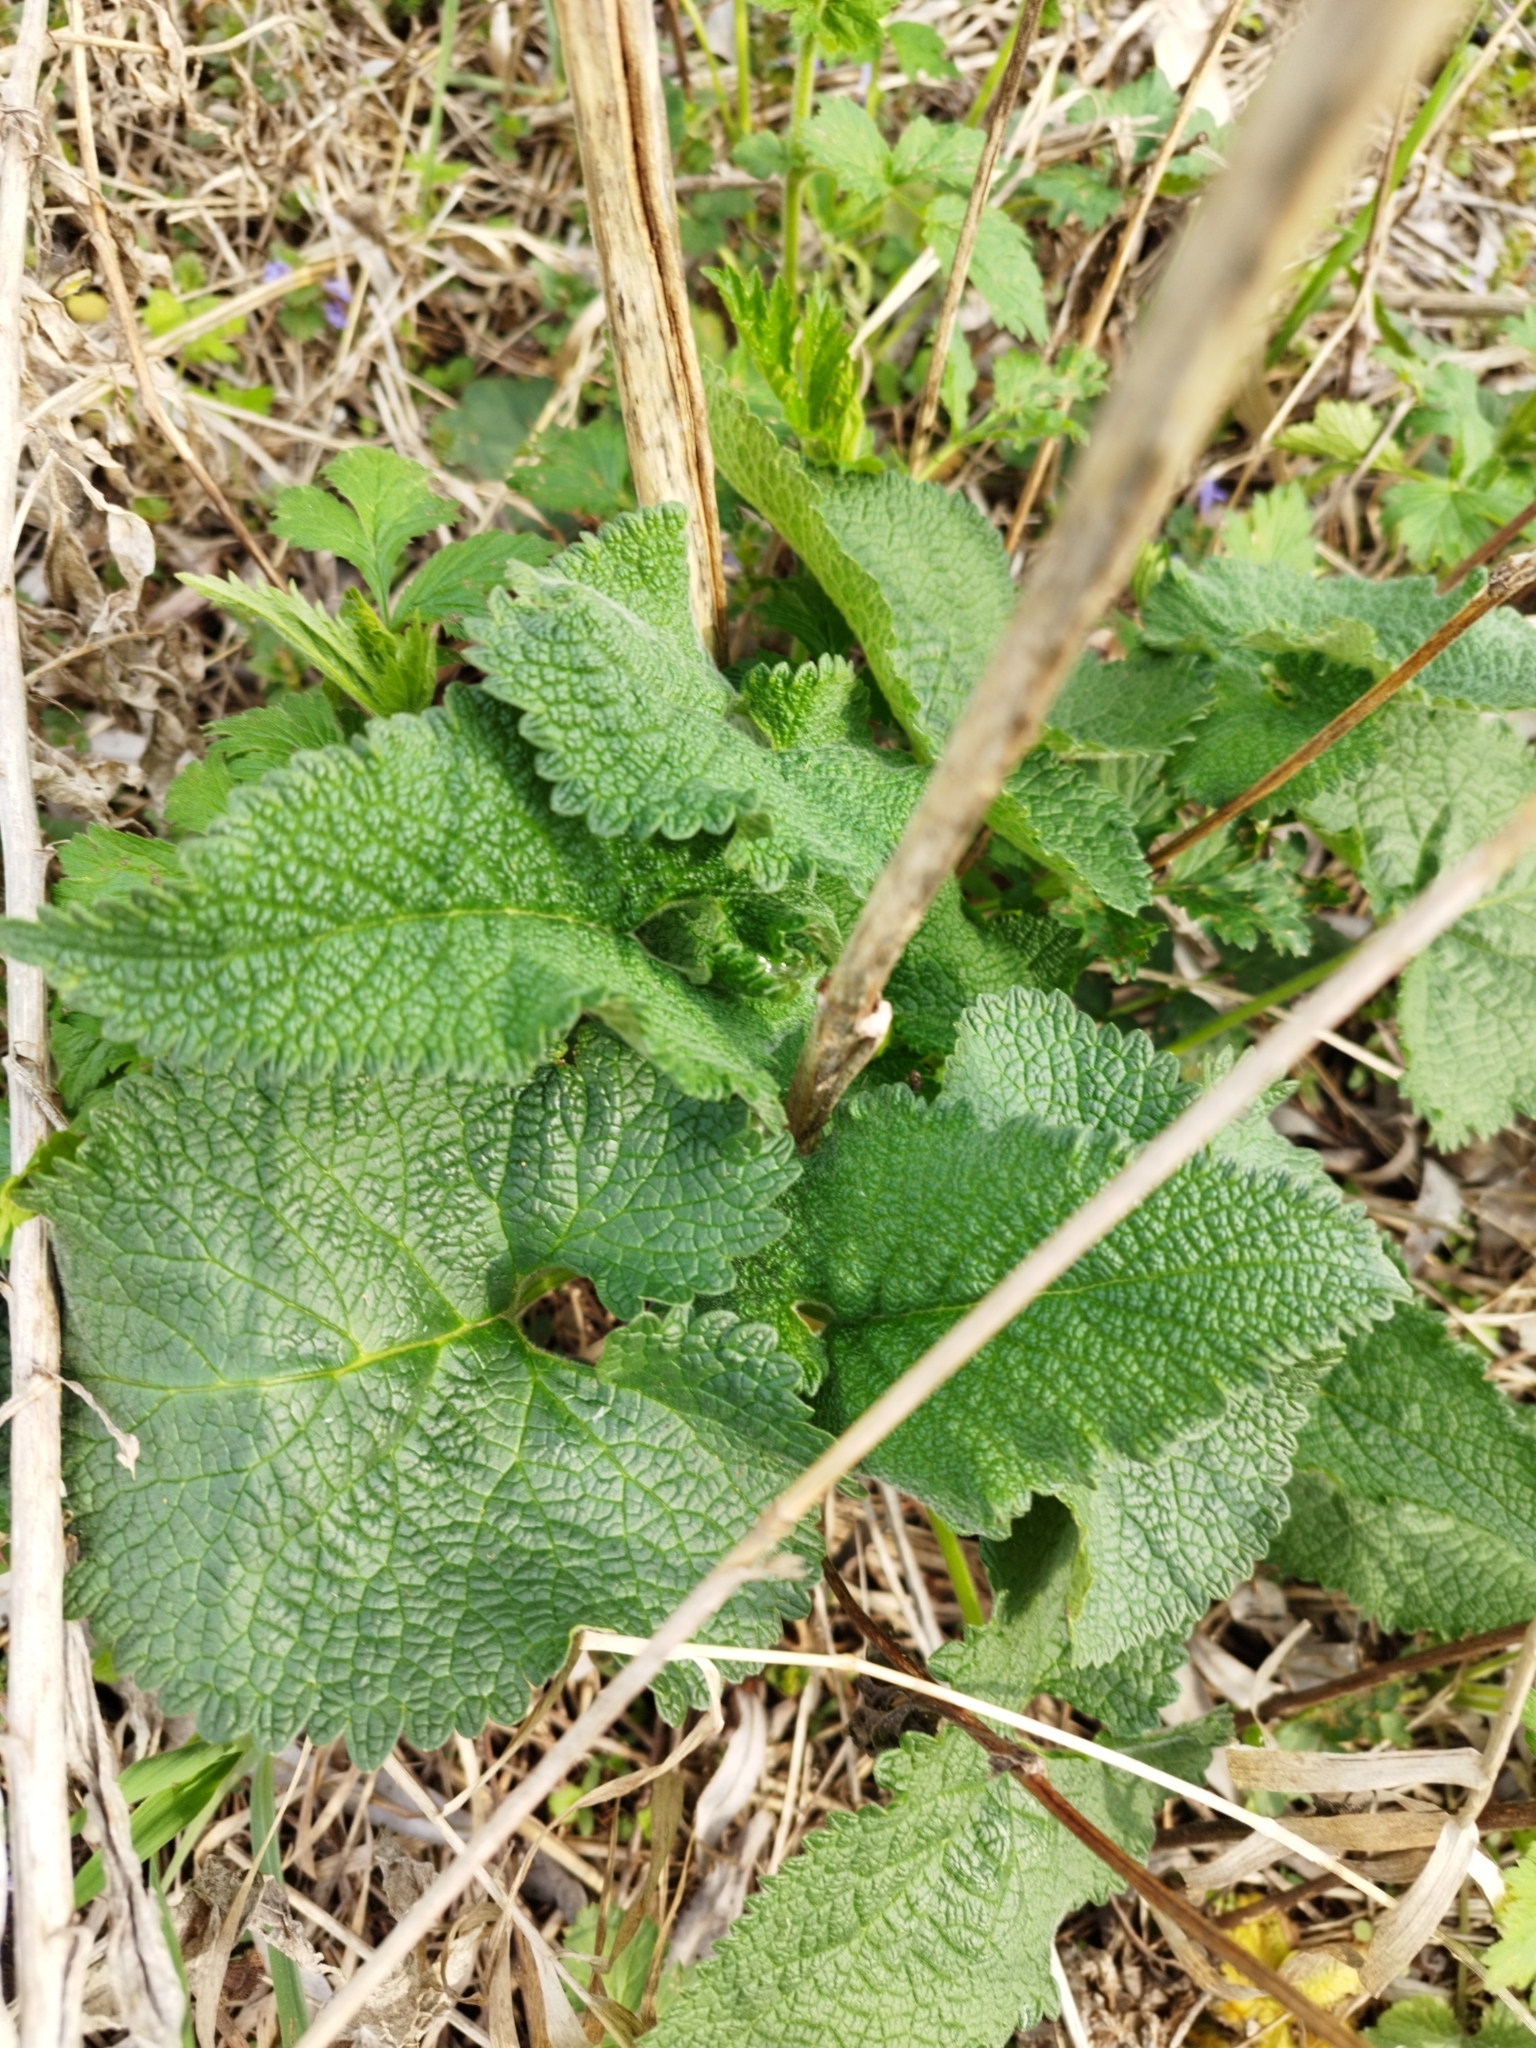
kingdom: Plantae
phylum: Tracheophyta
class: Magnoliopsida
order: Lamiales
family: Lamiaceae
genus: Phlomoides
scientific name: Phlomoides tuberosa
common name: Tuberous jerusalem sage
